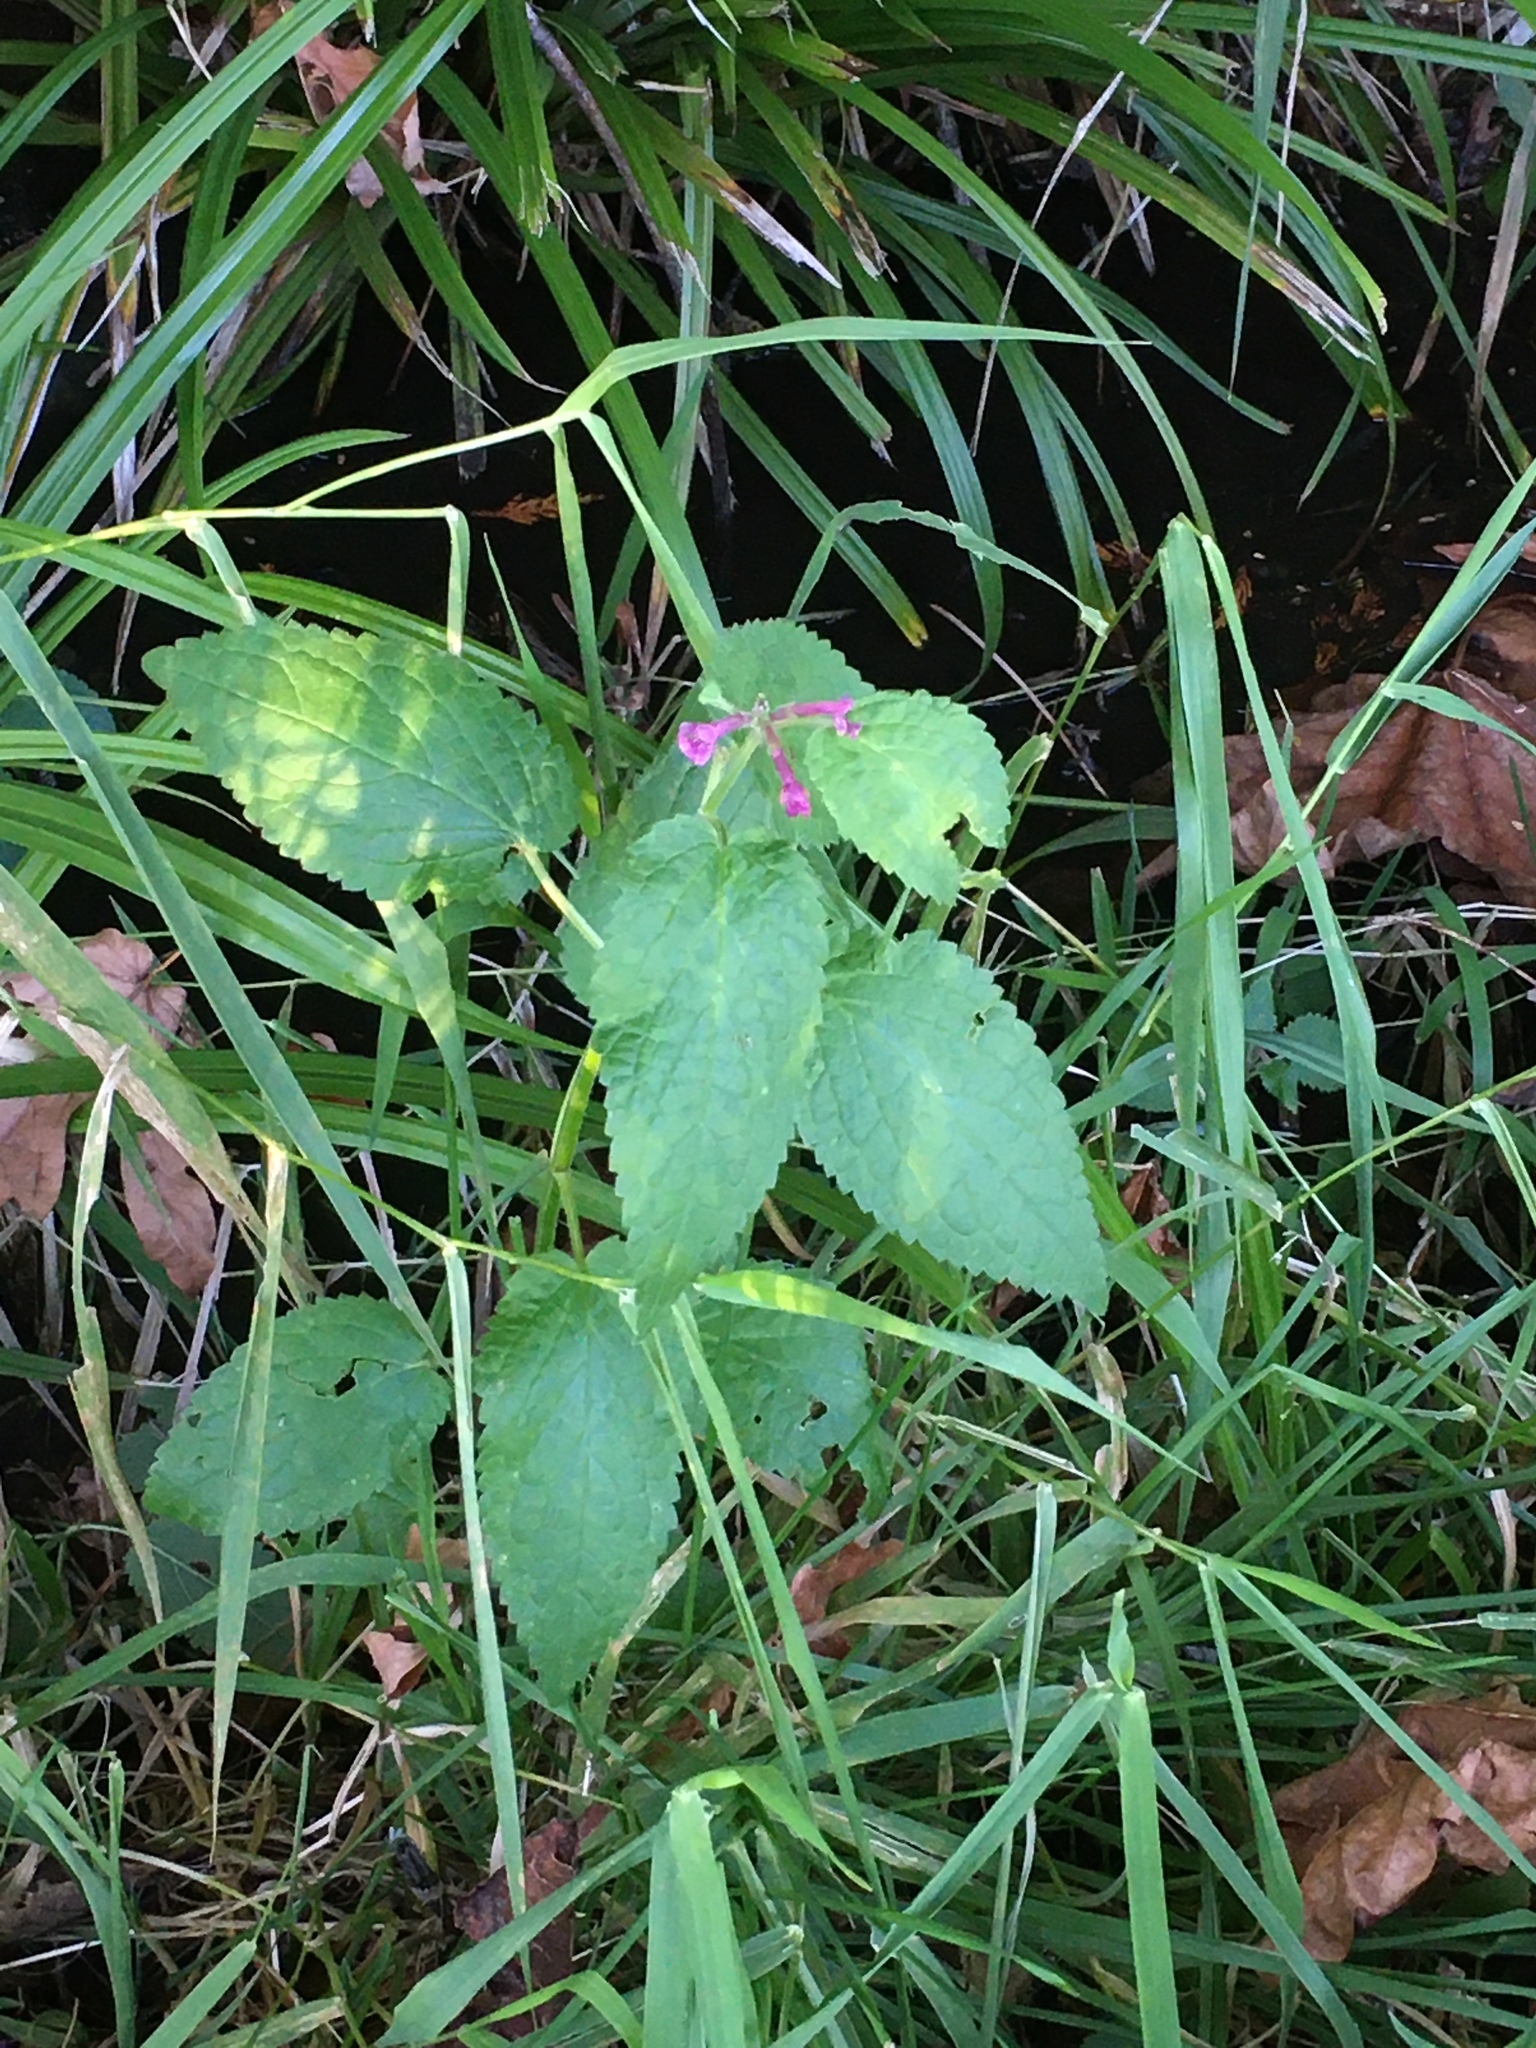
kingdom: Plantae
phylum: Tracheophyta
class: Magnoliopsida
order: Lamiales
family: Lamiaceae
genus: Stachys
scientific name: Stachys chamissonis
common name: Coastal hedge-nettle
